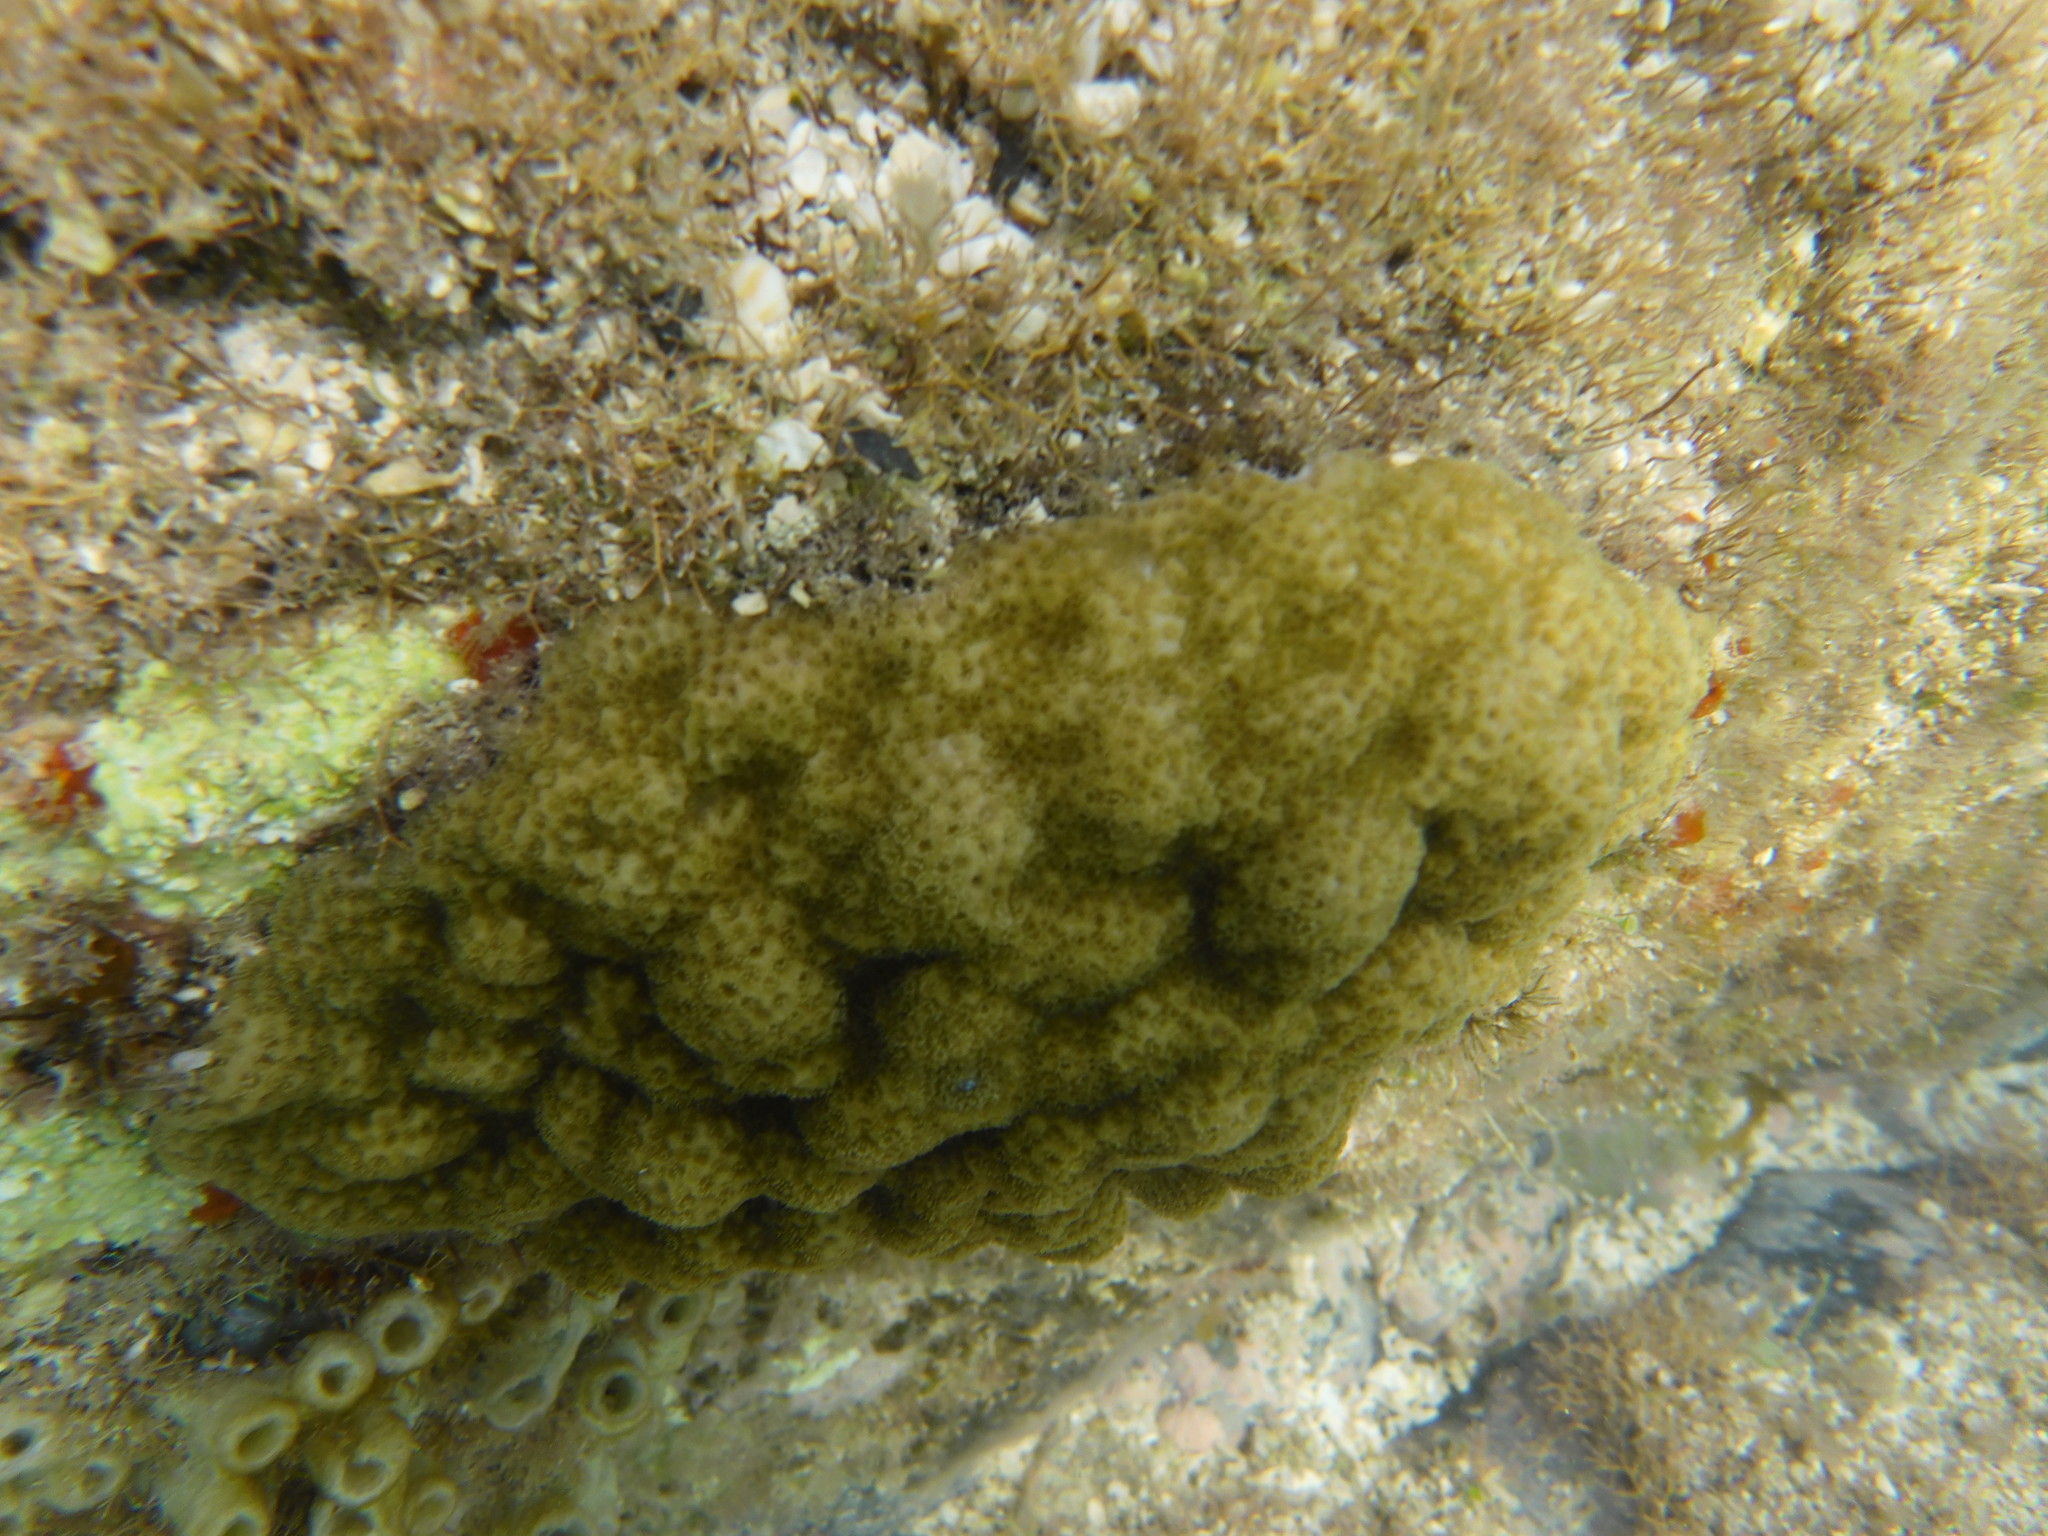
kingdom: Animalia
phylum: Cnidaria
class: Anthozoa
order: Scleractinia
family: Poritidae
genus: Porites
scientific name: Porites astreoides
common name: Mustard hill coral
